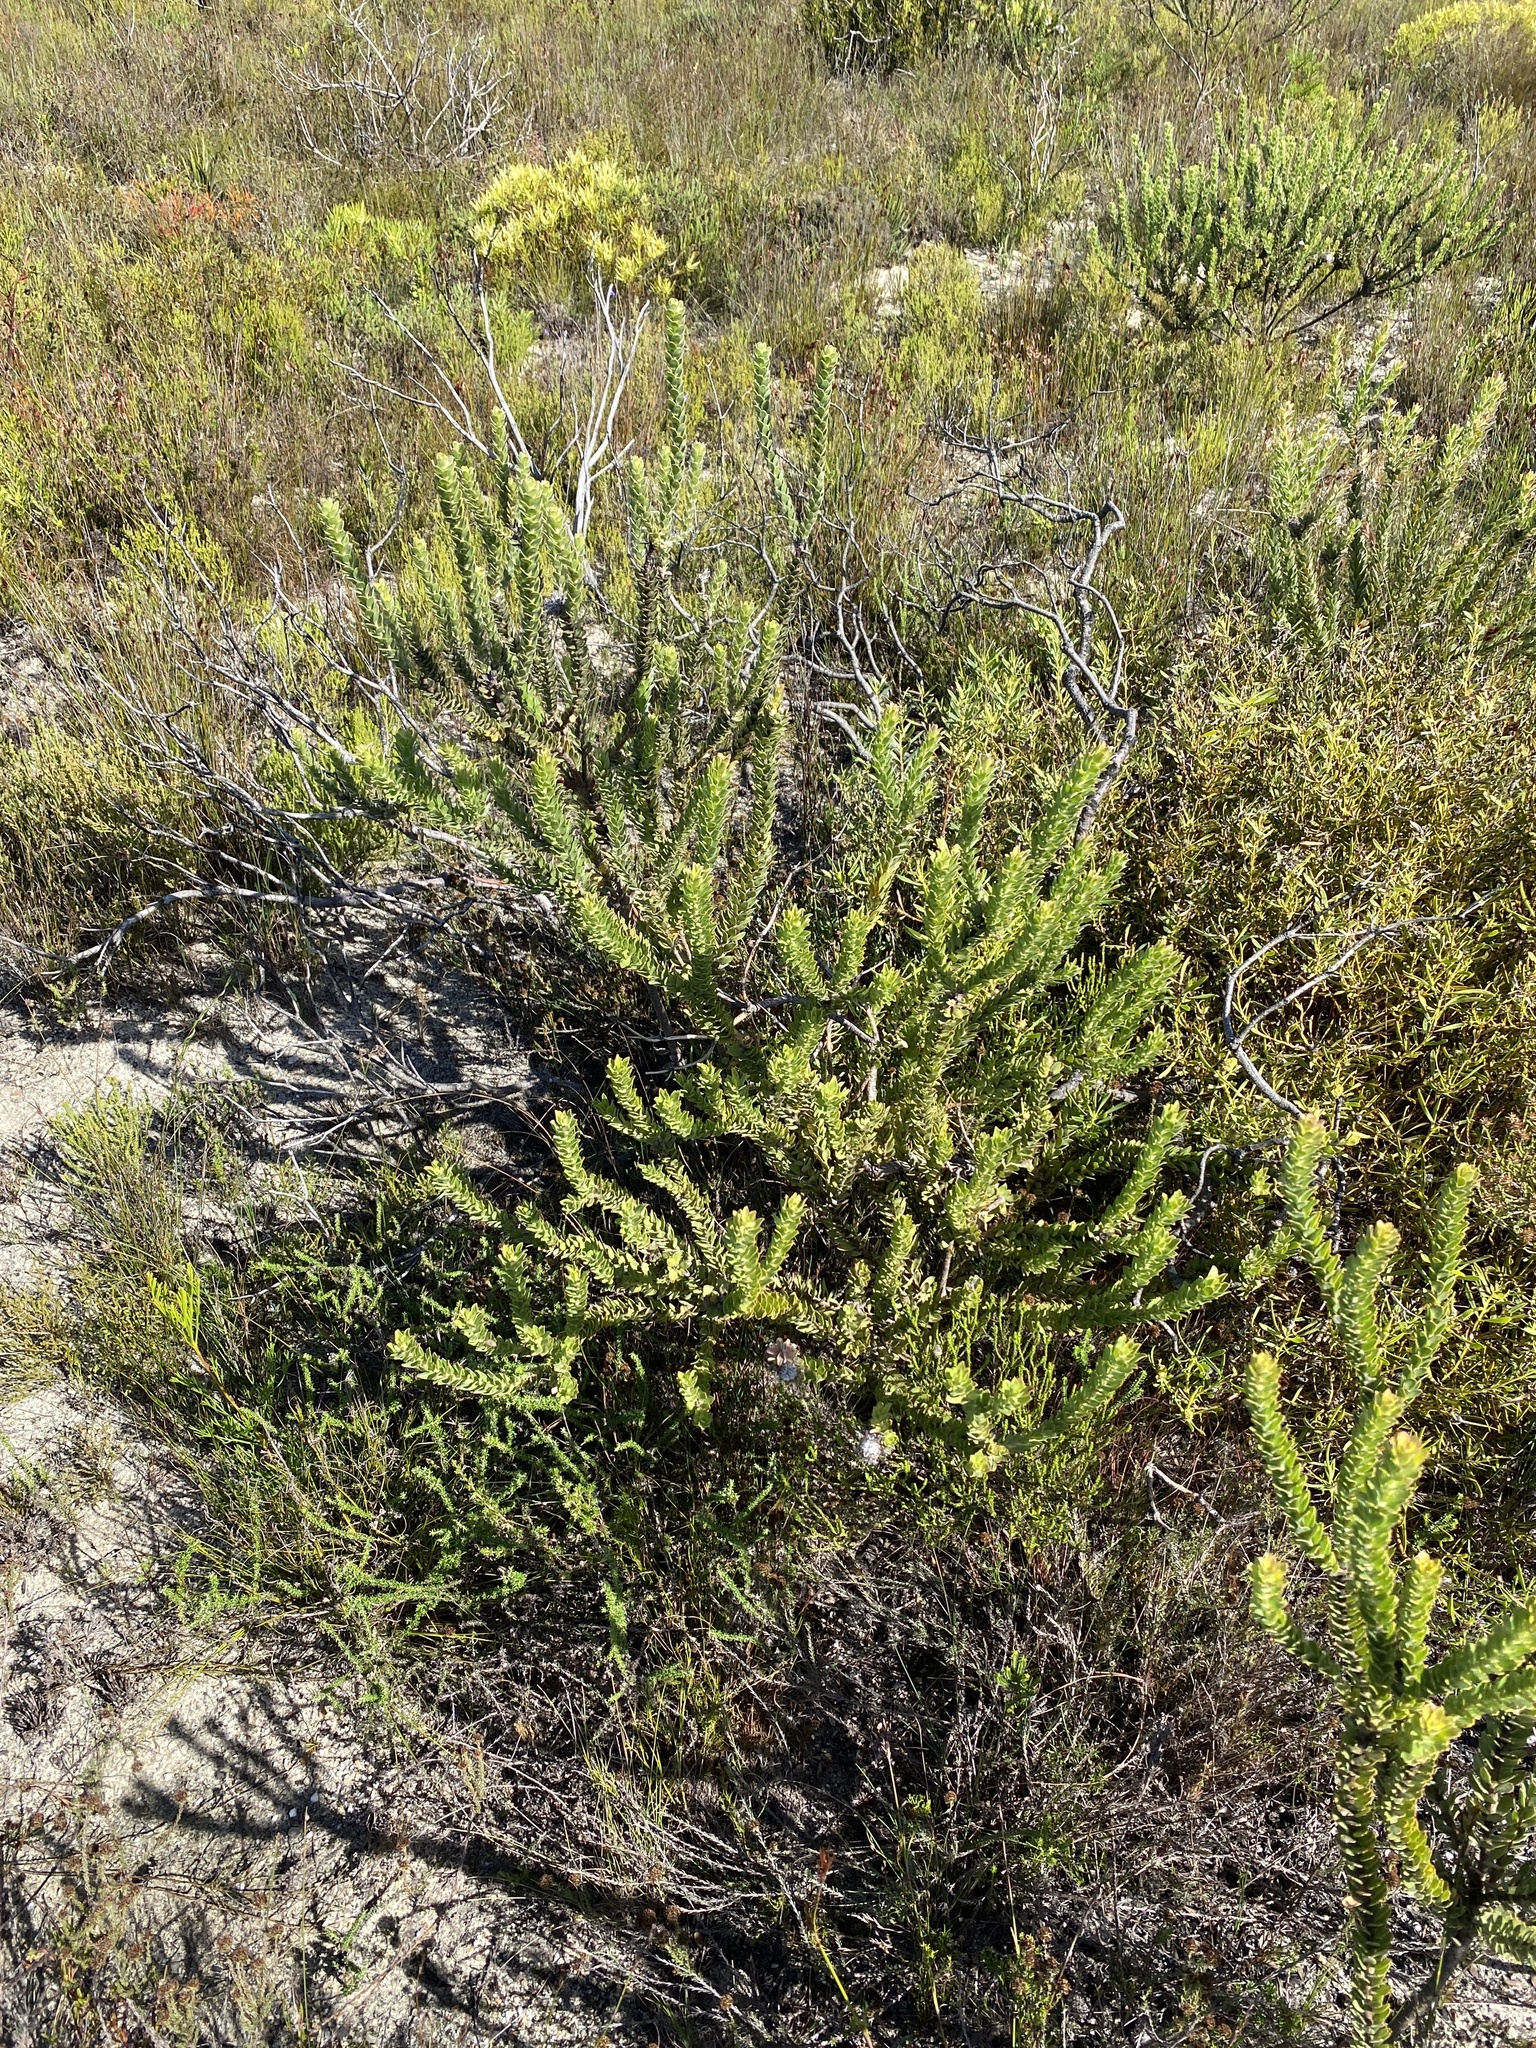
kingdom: Plantae
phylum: Tracheophyta
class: Magnoliopsida
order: Proteales
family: Proteaceae
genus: Leucospermum
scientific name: Leucospermum truncatulum
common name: Oval-leaf pincushion
